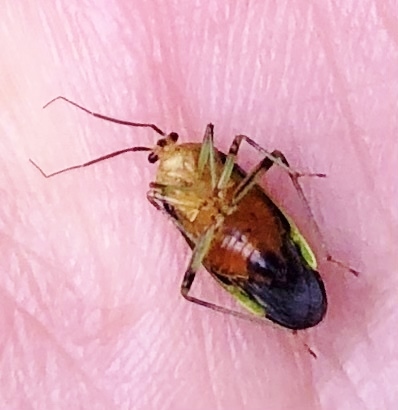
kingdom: Animalia
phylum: Arthropoda
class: Insecta
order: Hemiptera
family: Miridae
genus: Poecilocapsus
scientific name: Poecilocapsus lineatus
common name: Four-lined plant bug
